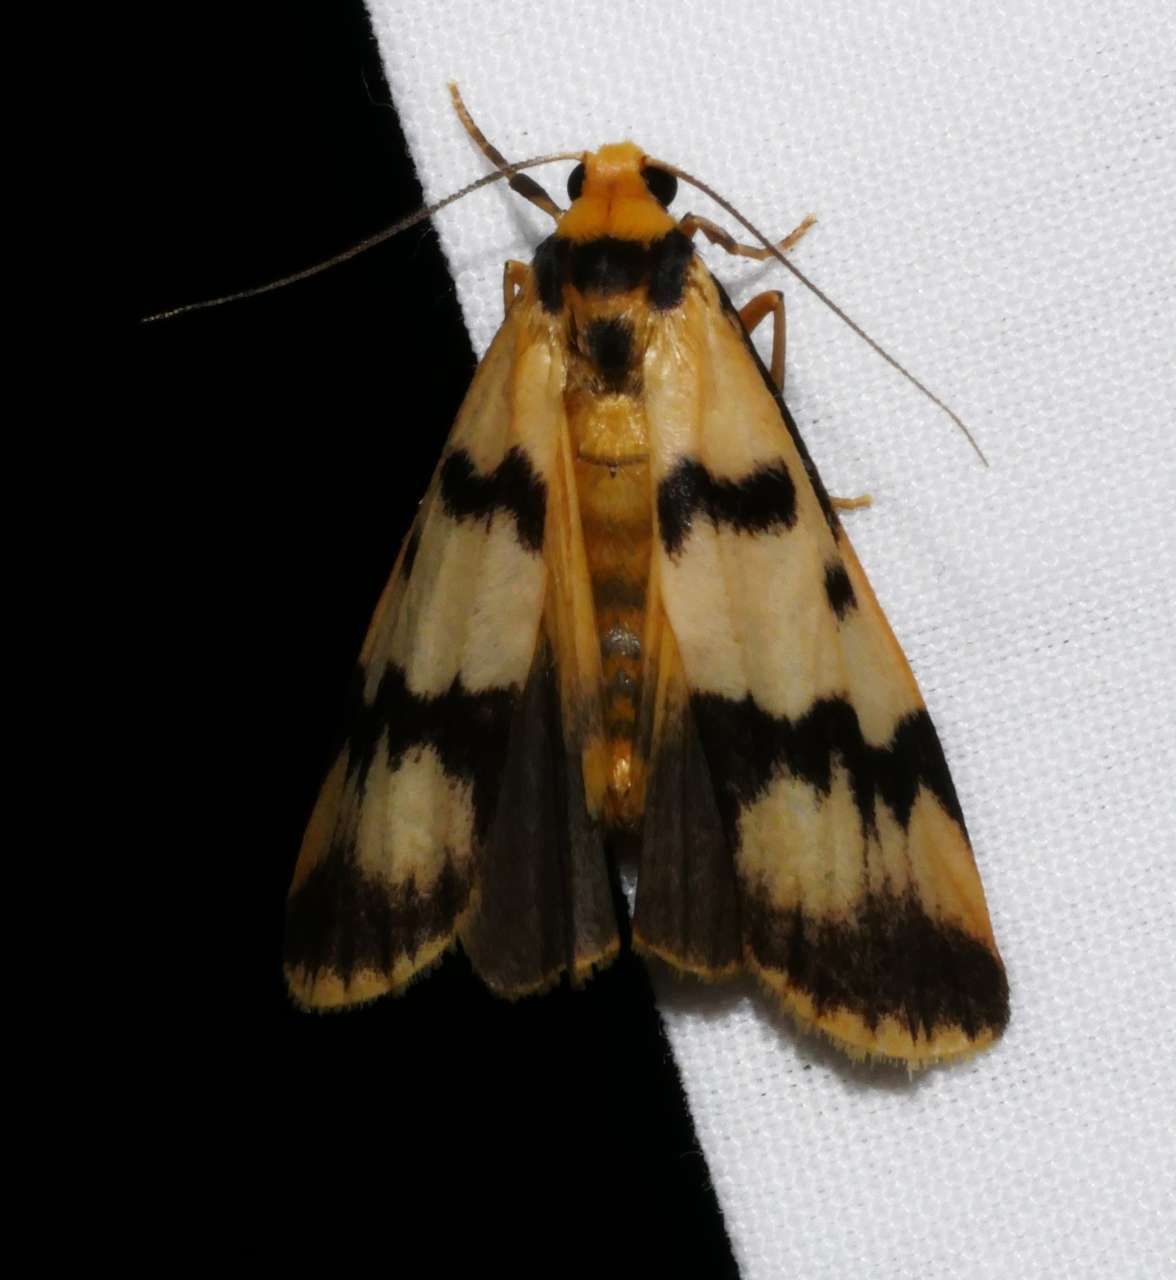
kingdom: Animalia
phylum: Arthropoda
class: Insecta
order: Lepidoptera
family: Erebidae
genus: Tigrioides
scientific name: Tigrioides alterna
